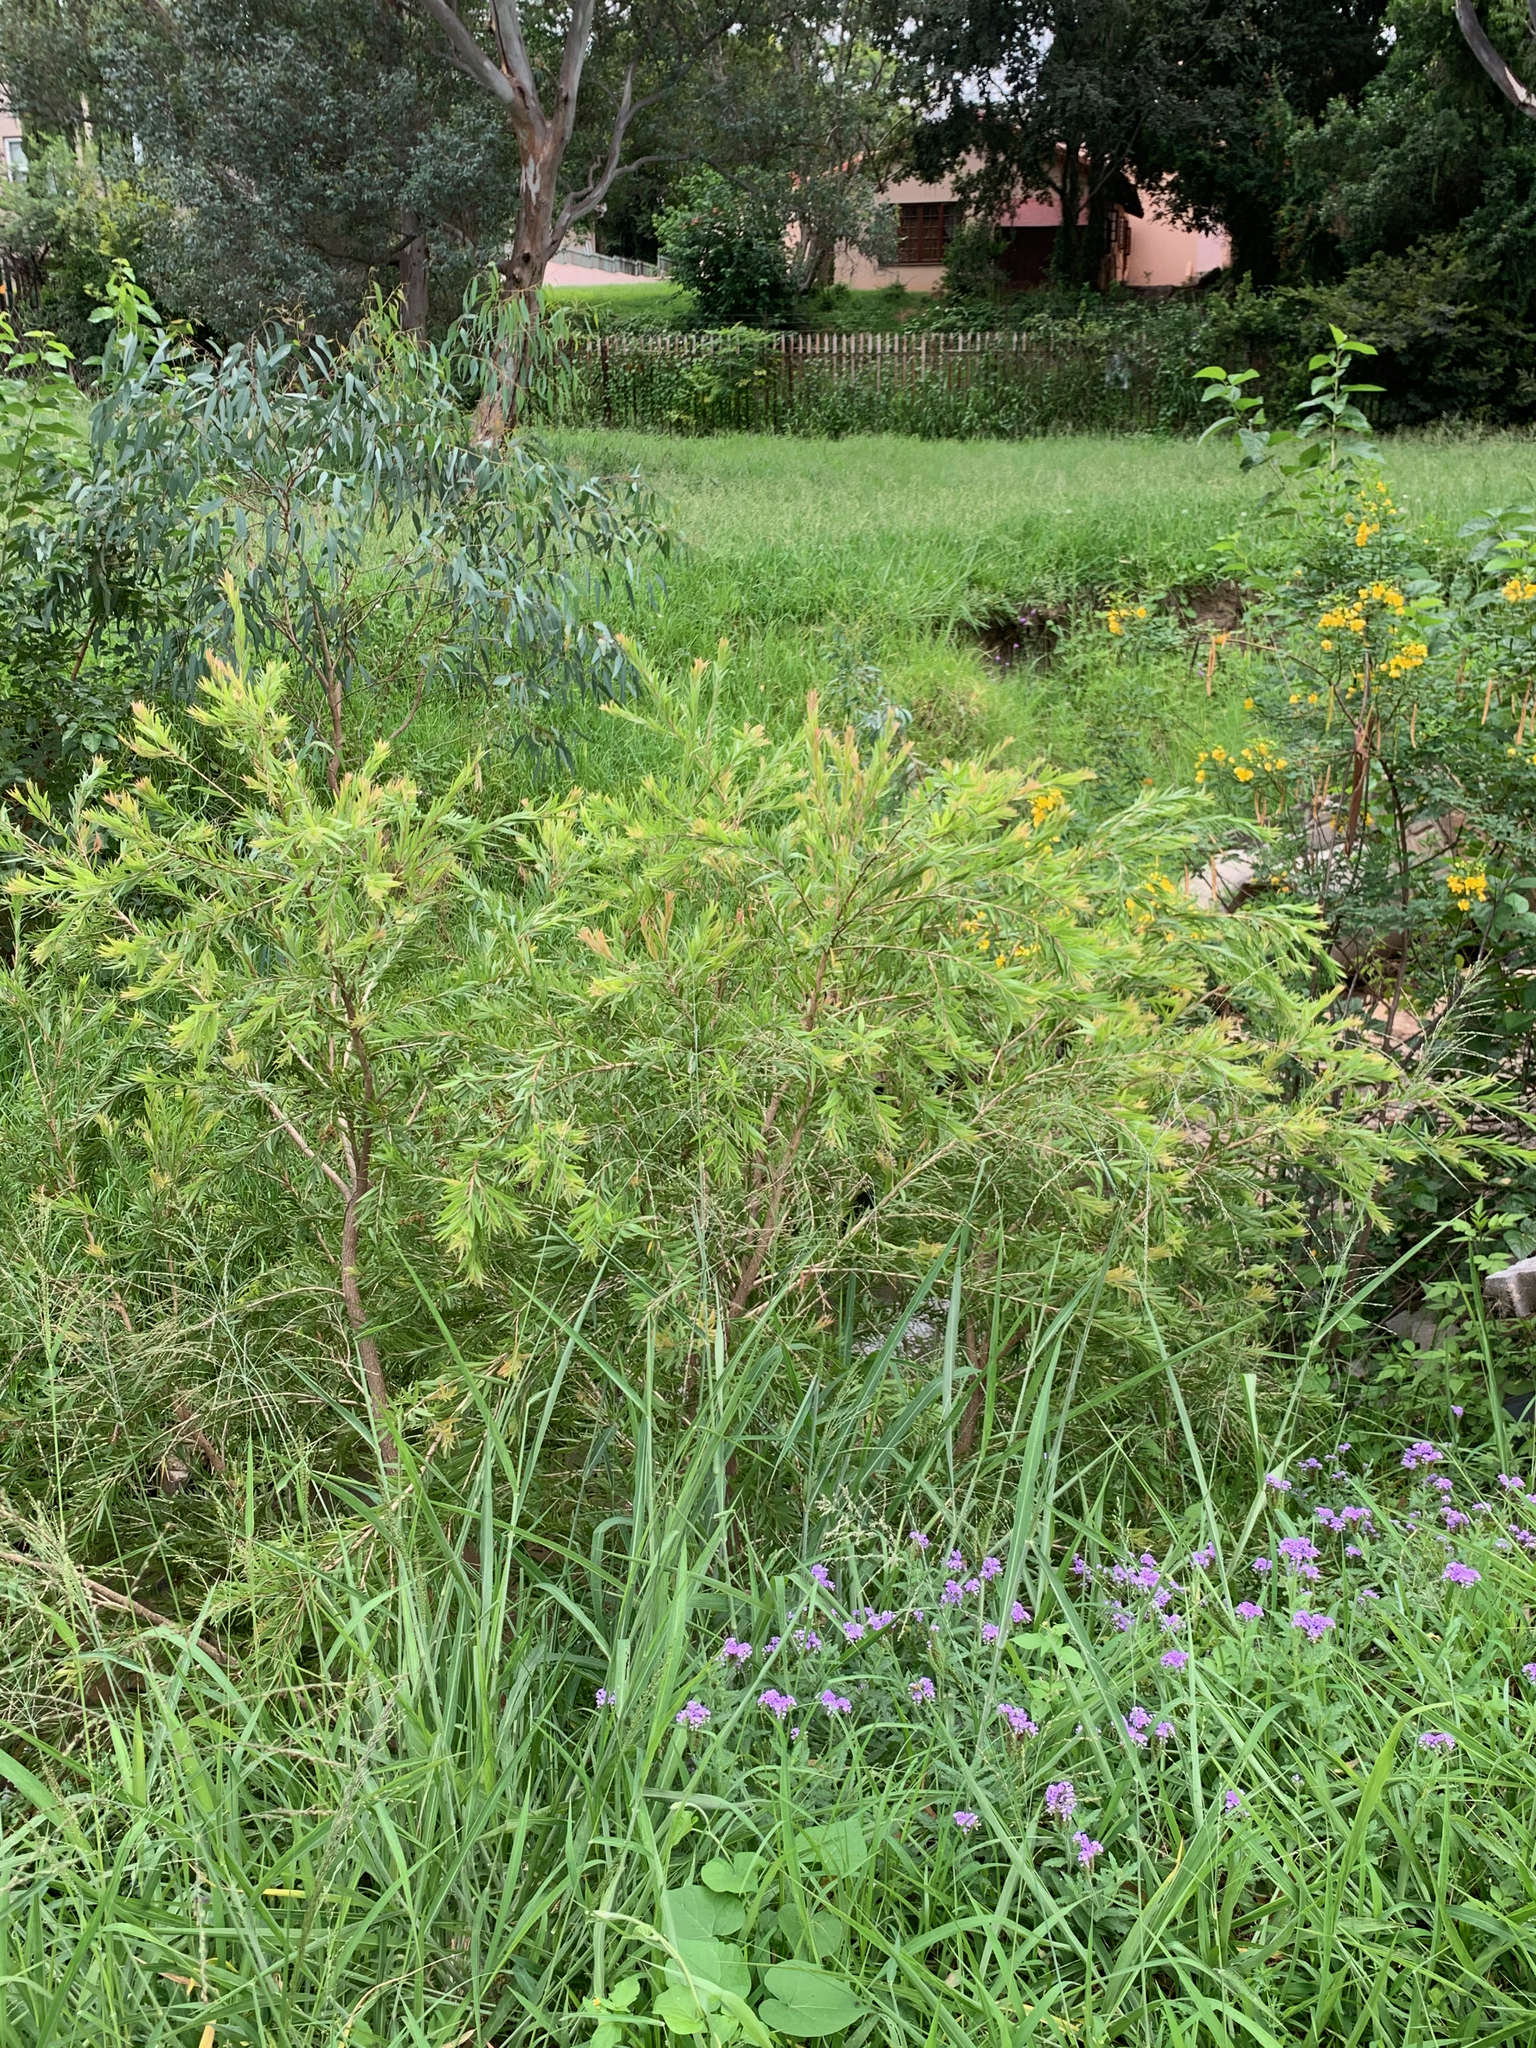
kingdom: Plantae
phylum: Tracheophyta
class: Magnoliopsida
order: Myrtales
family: Myrtaceae
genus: Callistemon
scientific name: Callistemon viminalis
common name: Drooping bottlebrush
